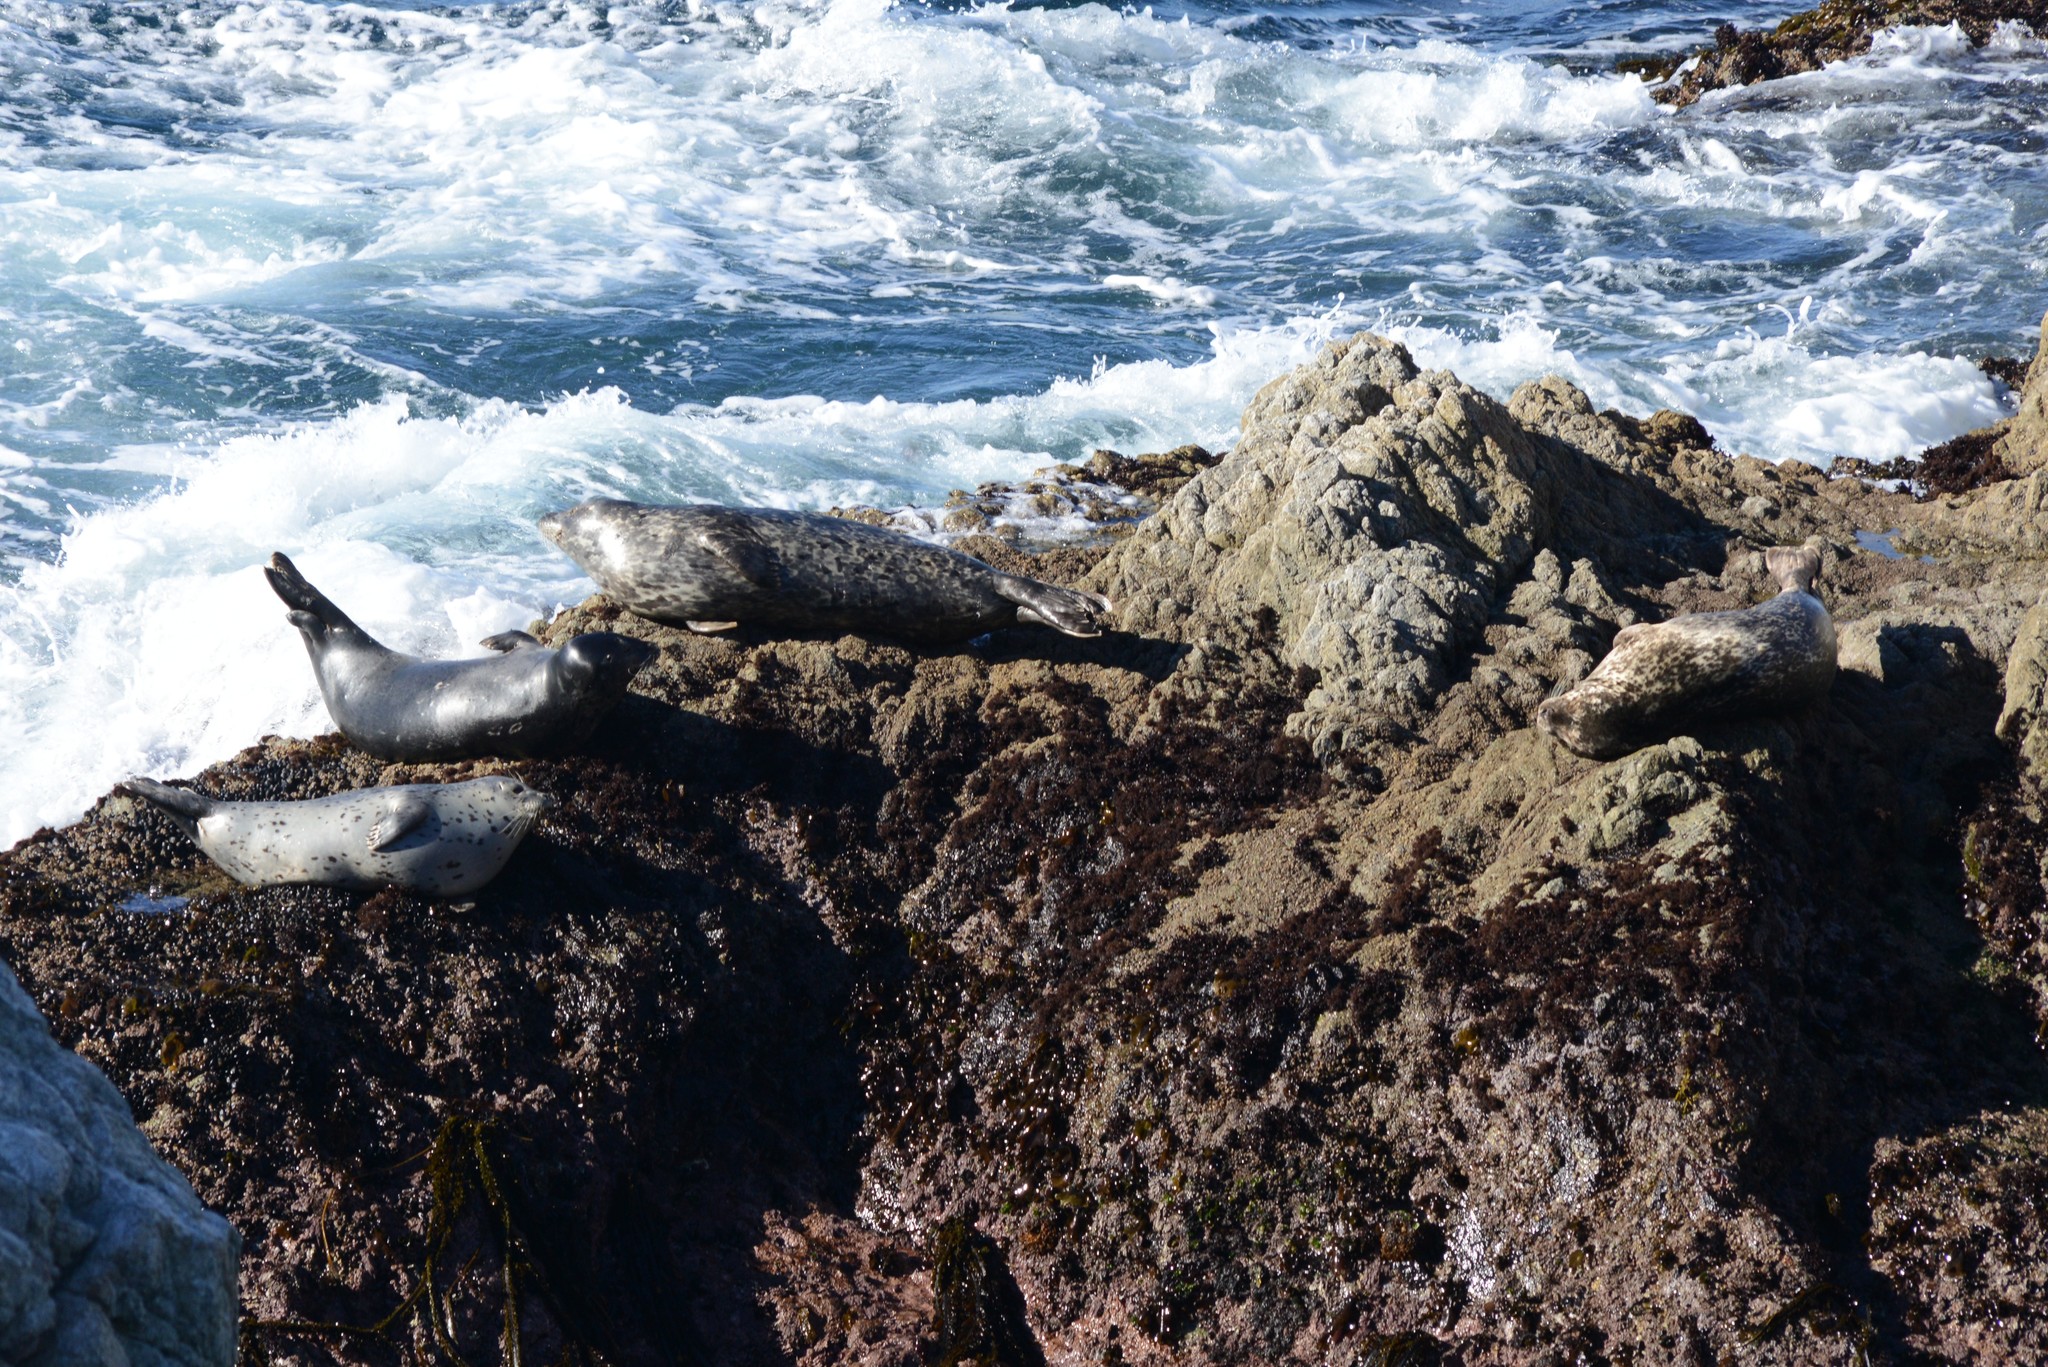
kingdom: Animalia
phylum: Chordata
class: Mammalia
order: Carnivora
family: Phocidae
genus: Phoca
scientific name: Phoca vitulina
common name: Harbor seal
